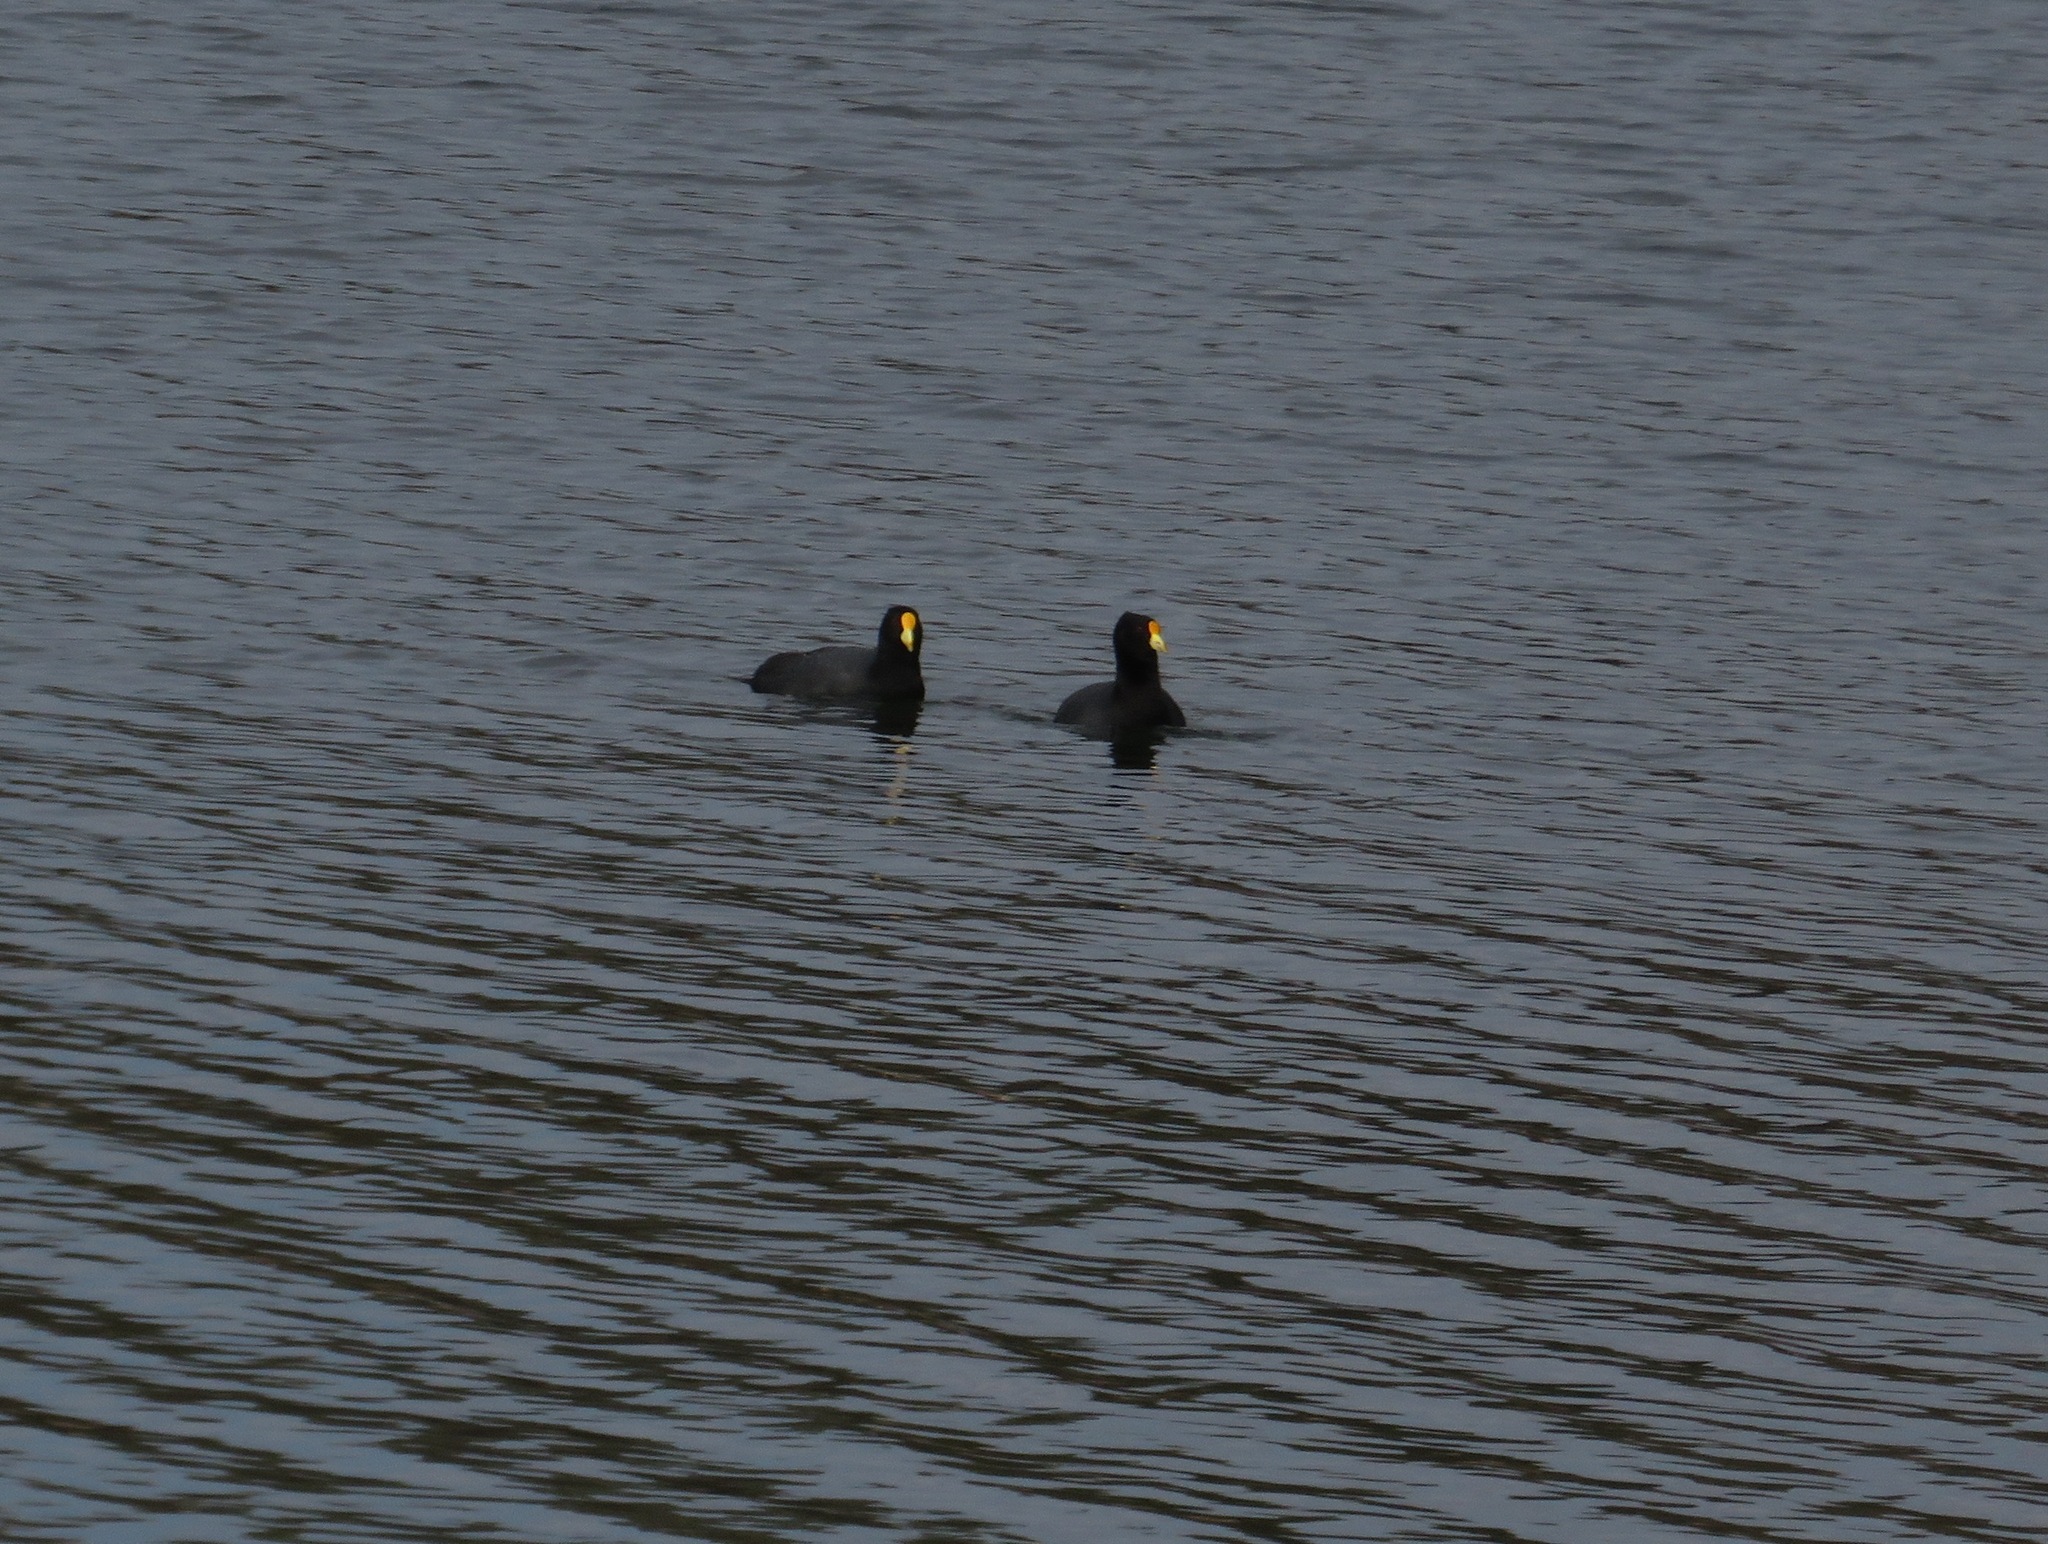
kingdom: Animalia
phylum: Chordata
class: Aves
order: Gruiformes
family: Rallidae
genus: Fulica
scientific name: Fulica leucoptera
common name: White-winged coot
